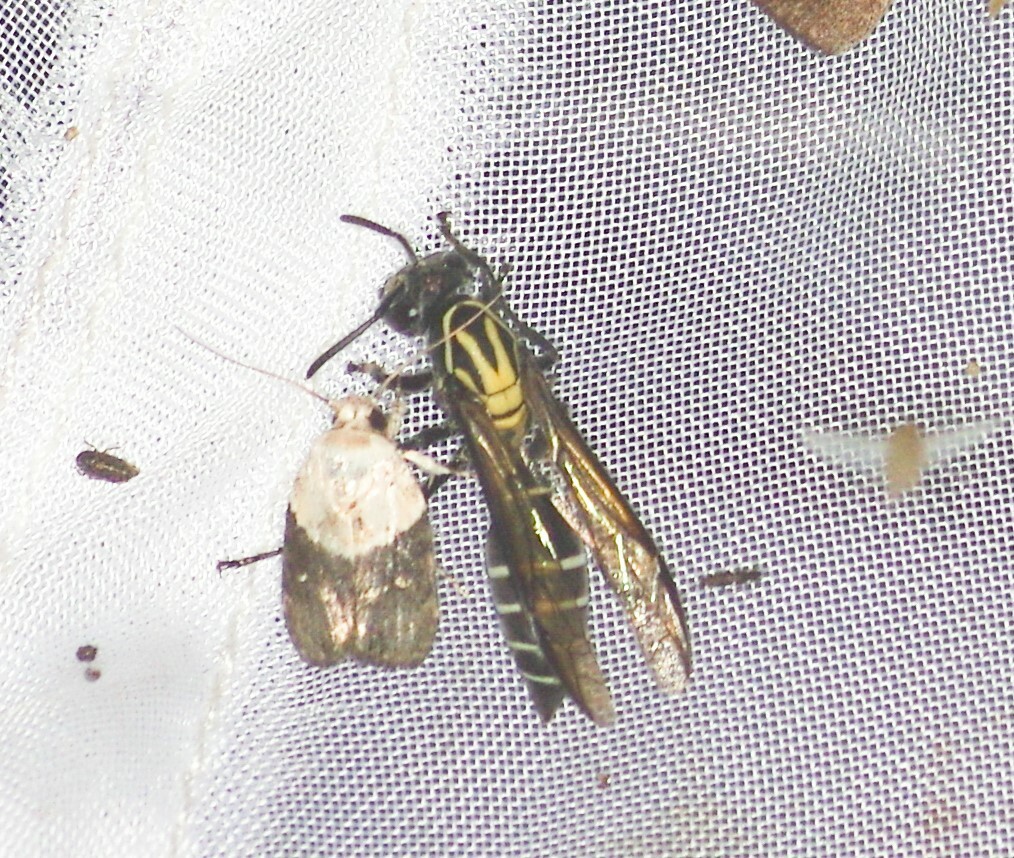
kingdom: Animalia
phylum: Arthropoda
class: Insecta
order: Hymenoptera
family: Eumenidae
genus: Polybia
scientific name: Polybia
